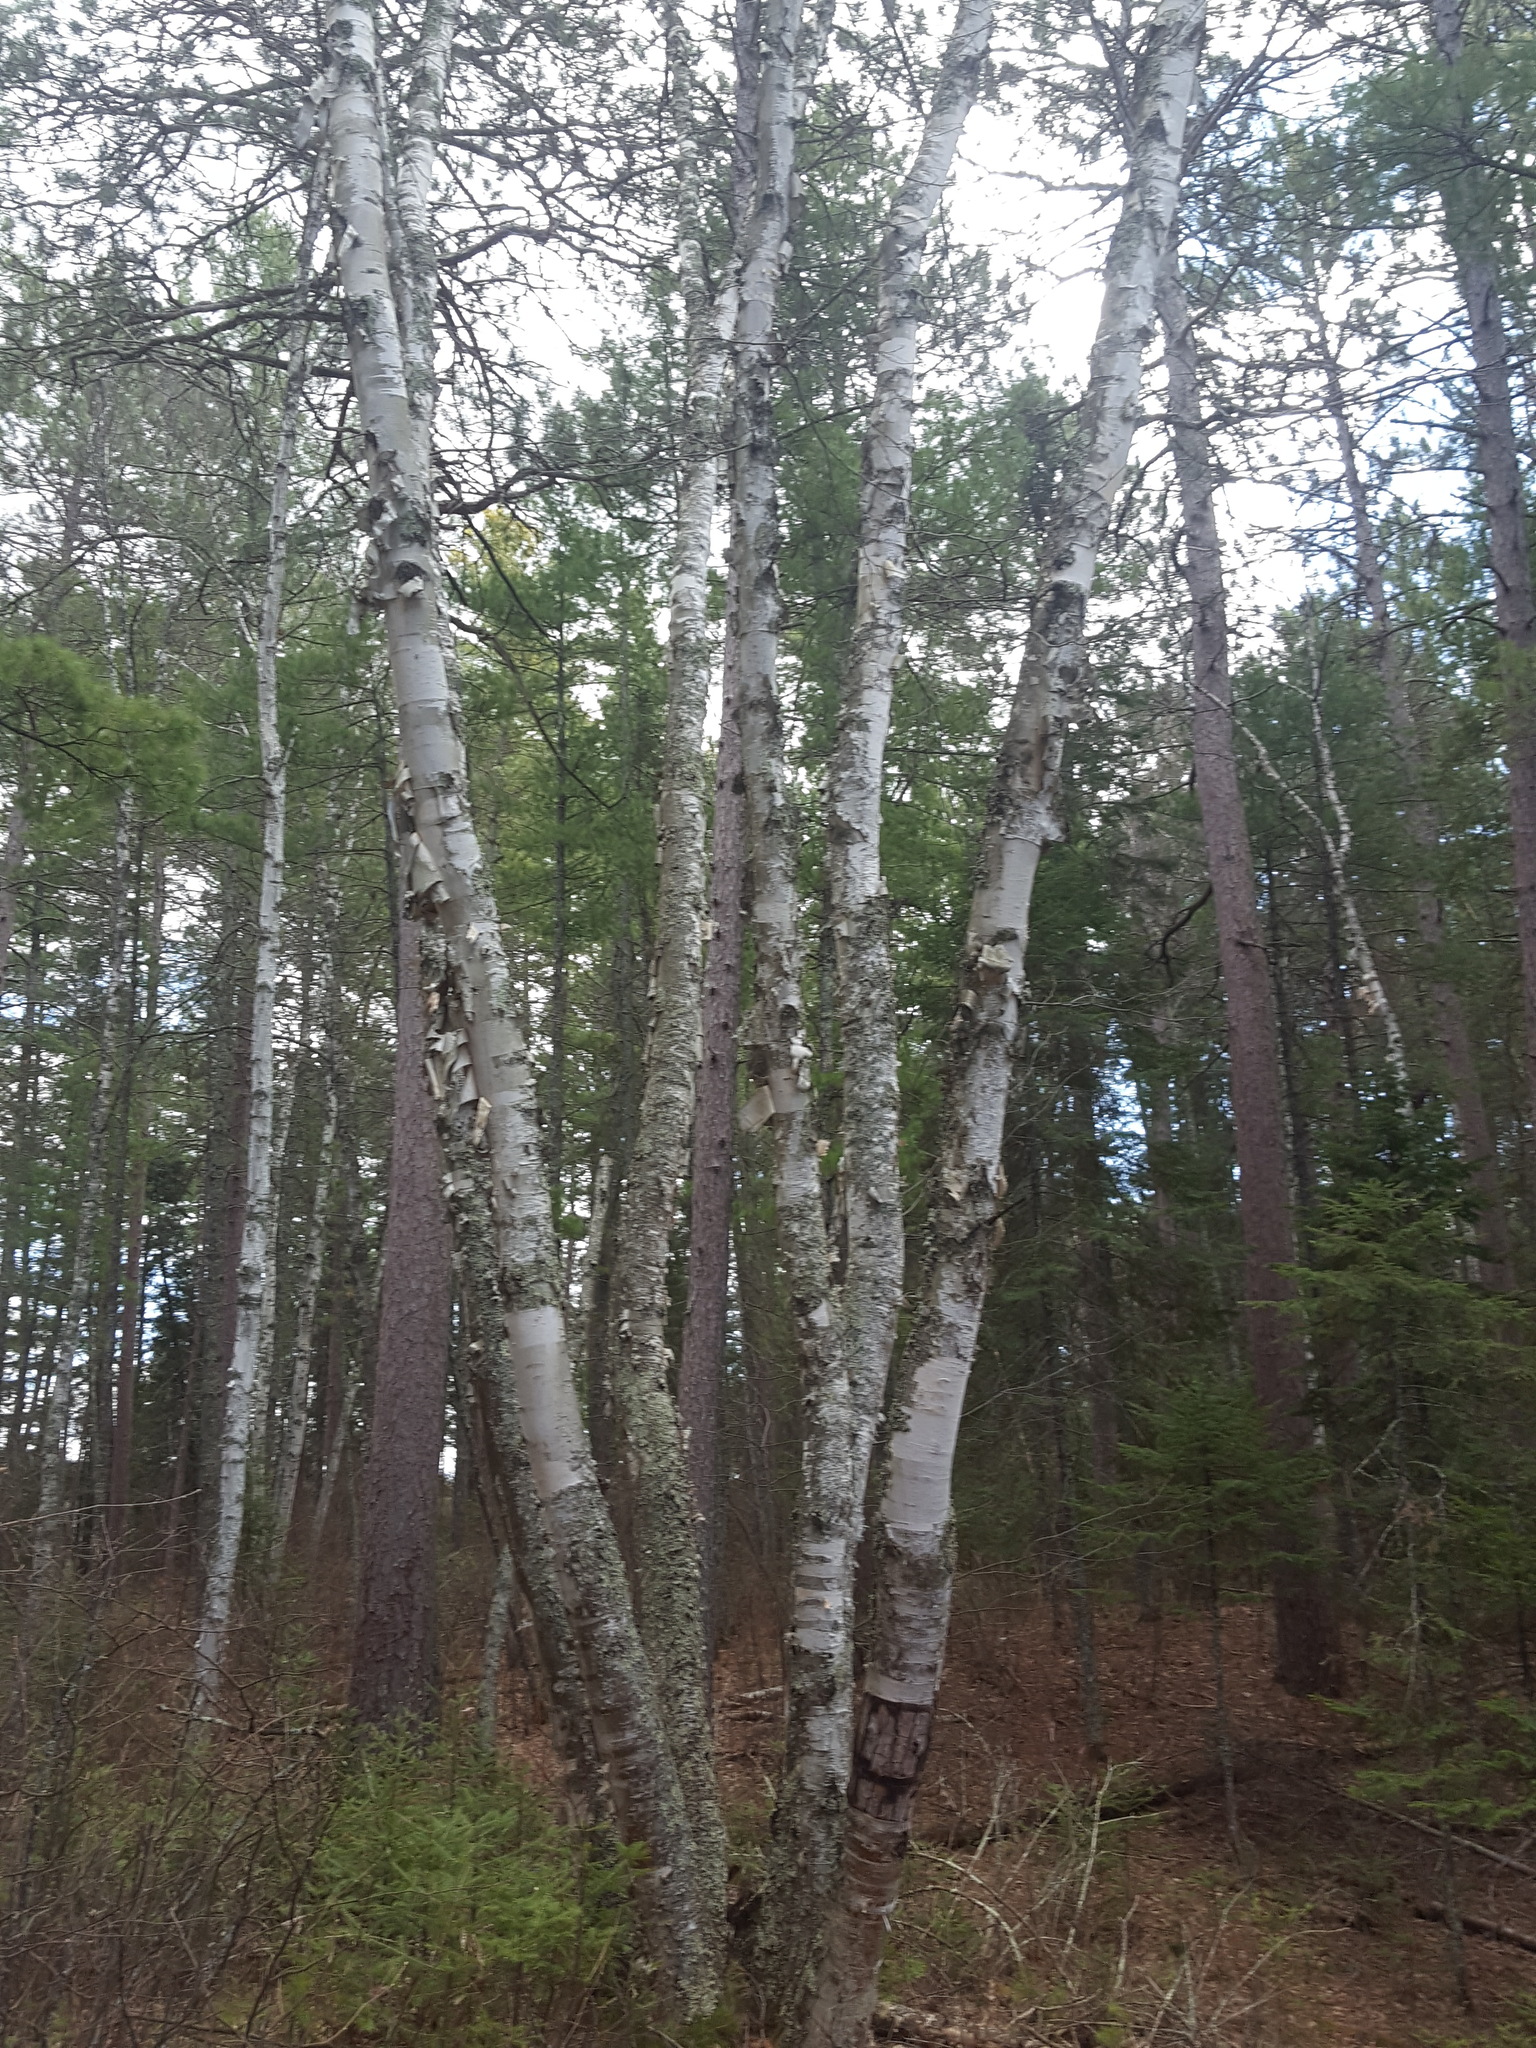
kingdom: Plantae
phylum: Tracheophyta
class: Magnoliopsida
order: Fagales
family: Betulaceae
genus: Betula
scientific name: Betula papyrifera
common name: Paper birch
